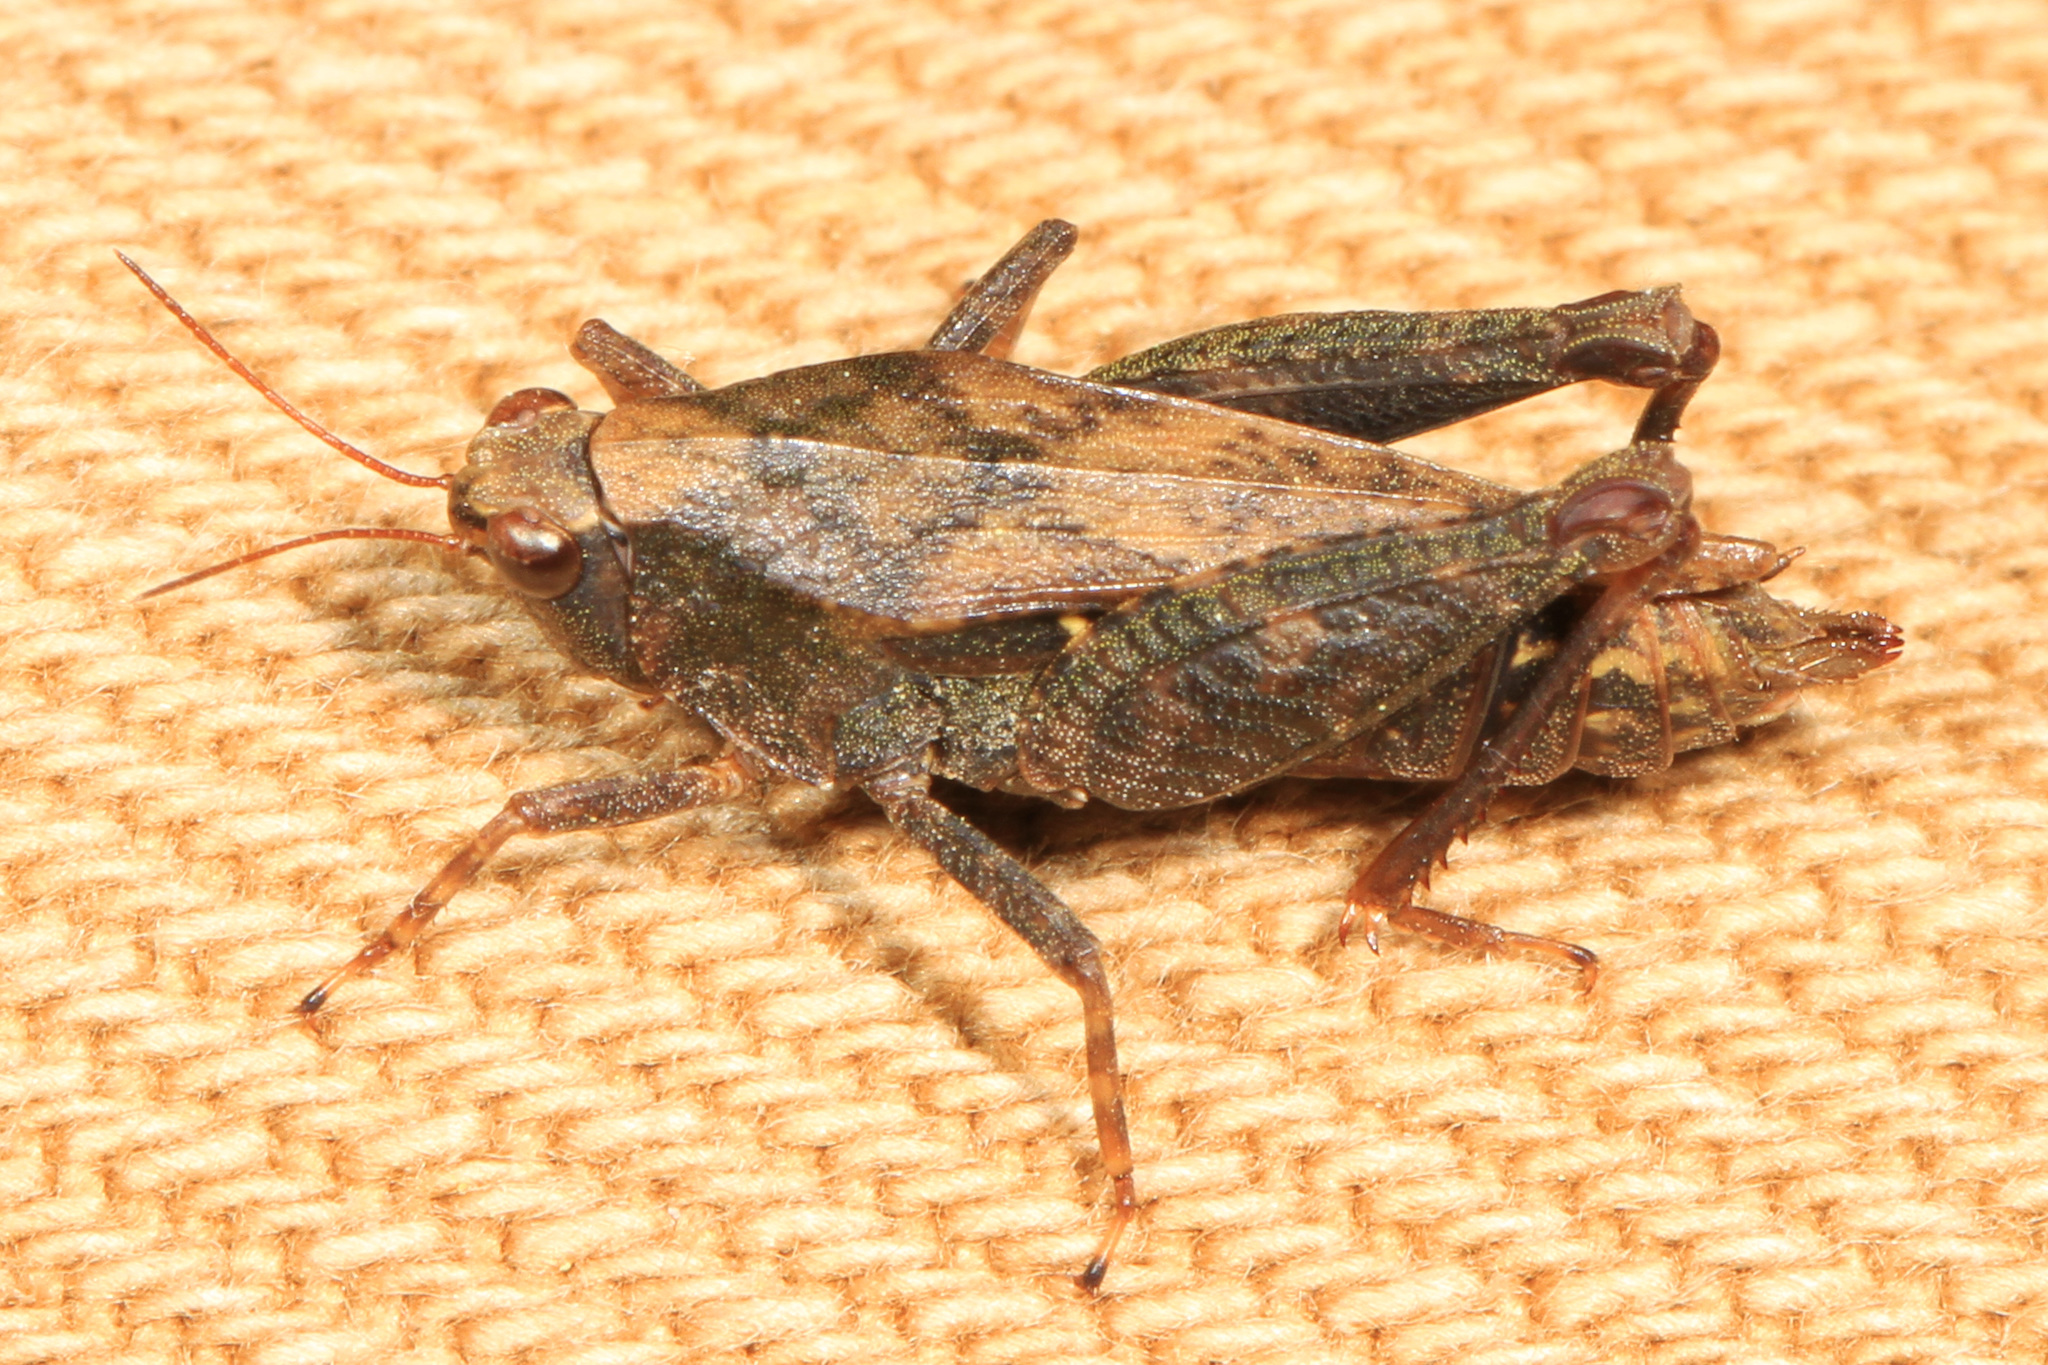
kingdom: Animalia
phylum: Arthropoda
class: Insecta
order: Orthoptera
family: Tetrigidae
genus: Tettigidea
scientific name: Tettigidea laterale
